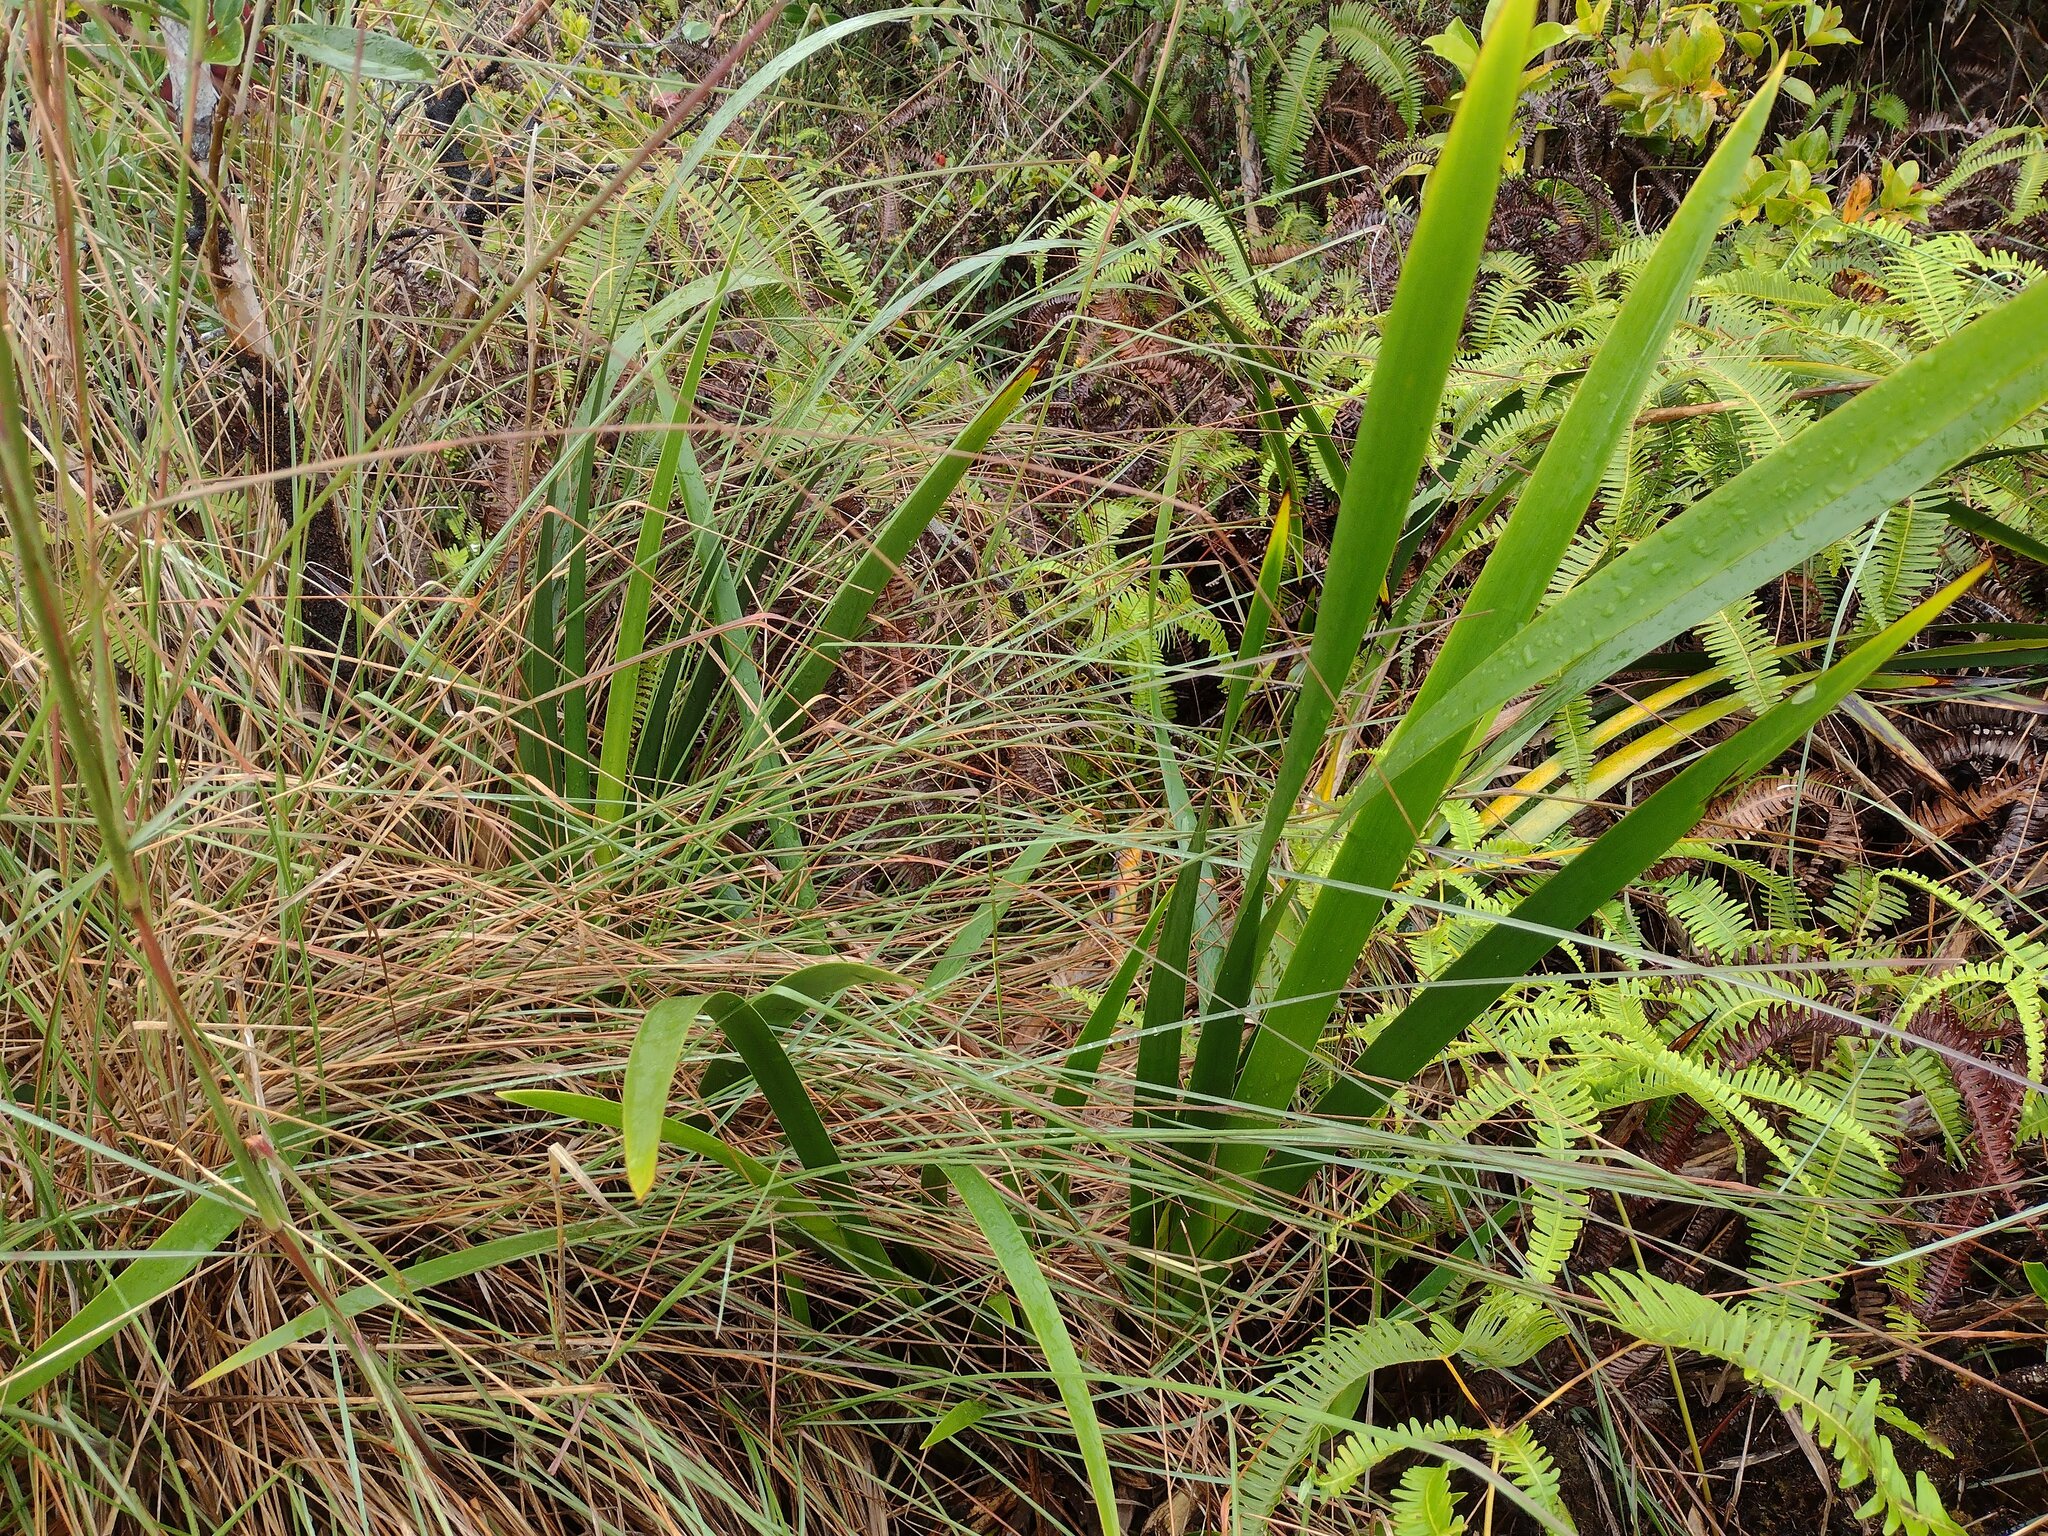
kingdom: Plantae
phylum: Tracheophyta
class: Liliopsida
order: Poales
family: Cyperaceae
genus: Machaerina
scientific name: Machaerina angustifolia
